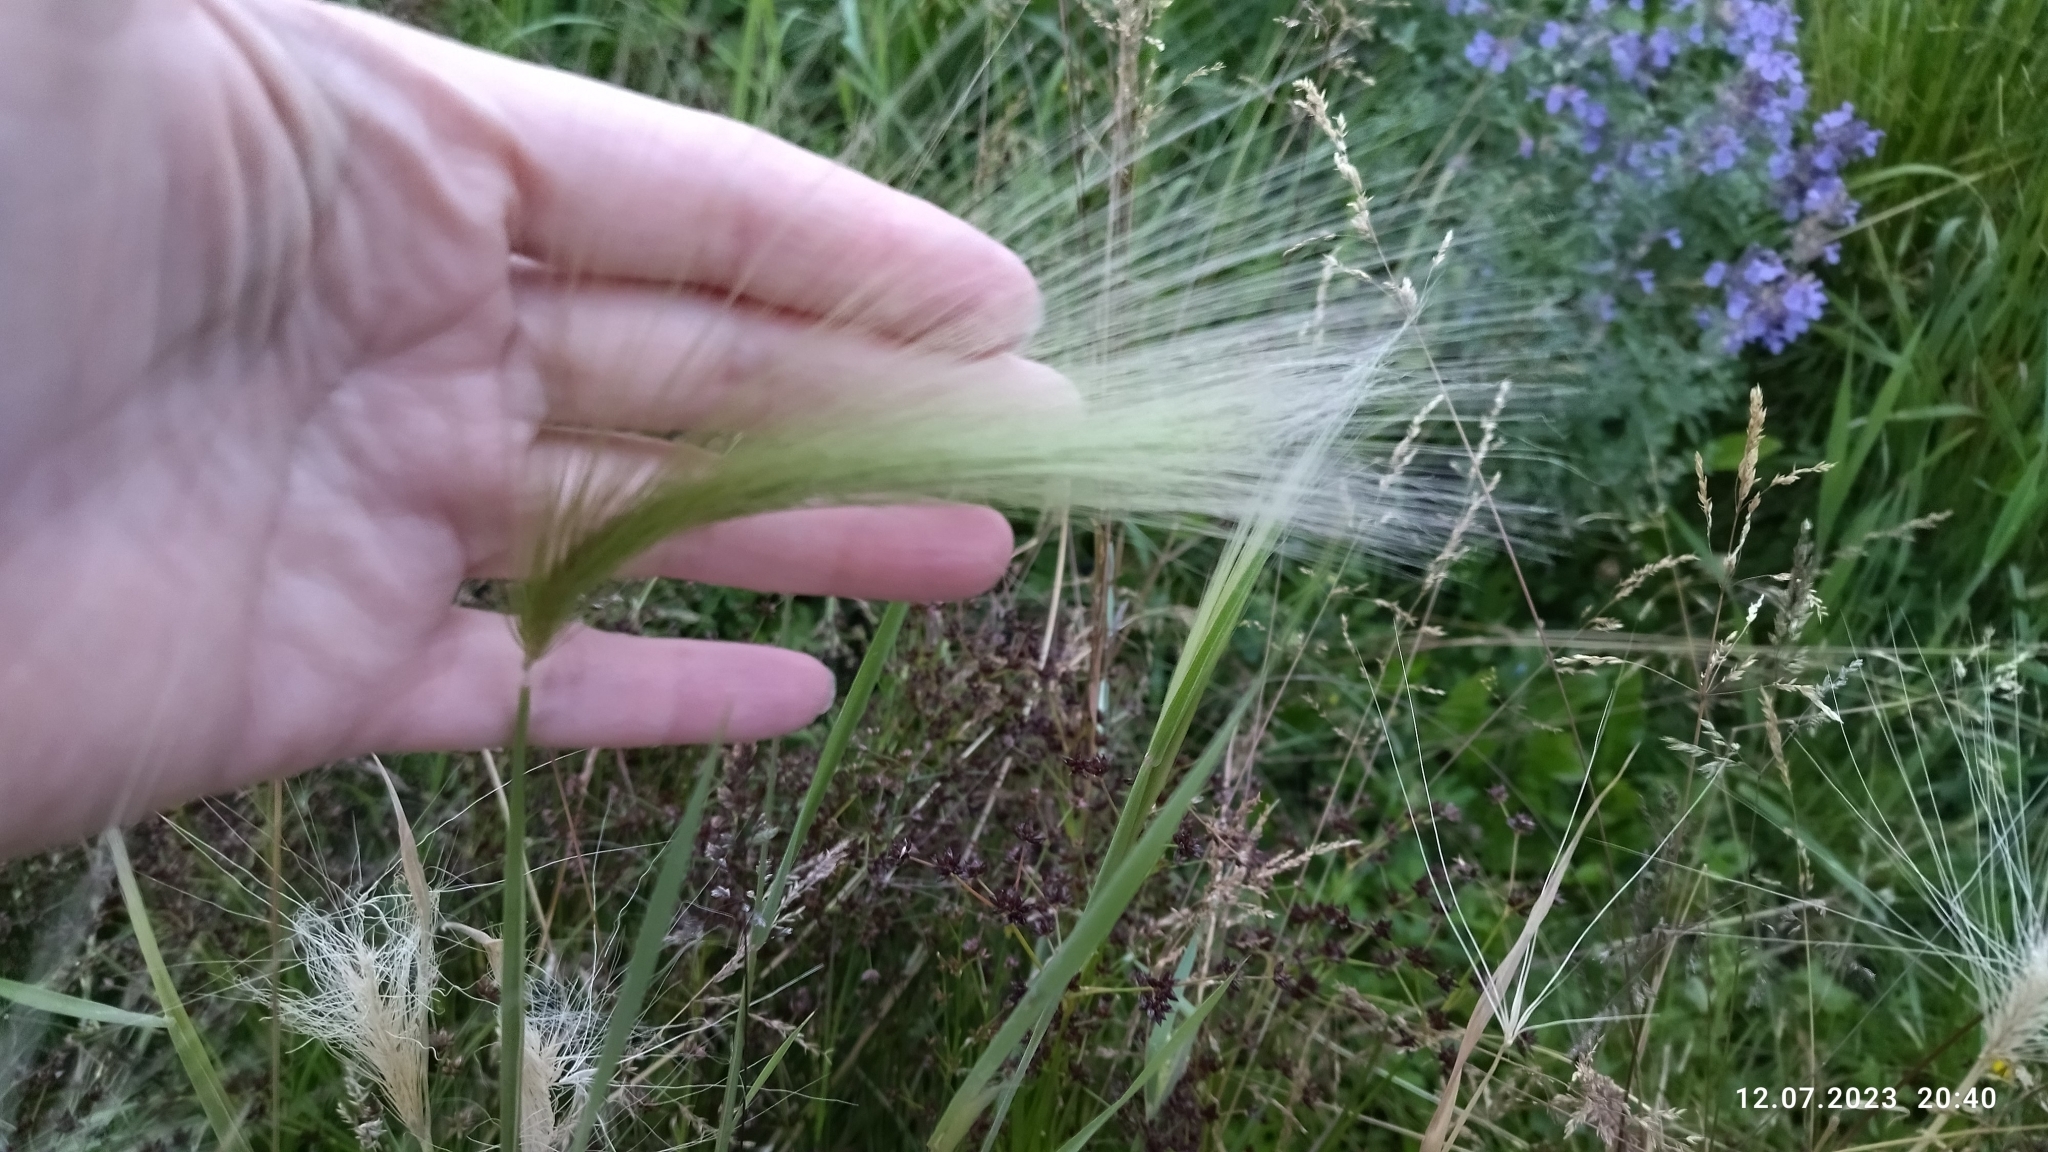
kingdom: Plantae
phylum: Tracheophyta
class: Liliopsida
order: Poales
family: Poaceae
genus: Hordeum
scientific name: Hordeum jubatum
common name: Foxtail barley
